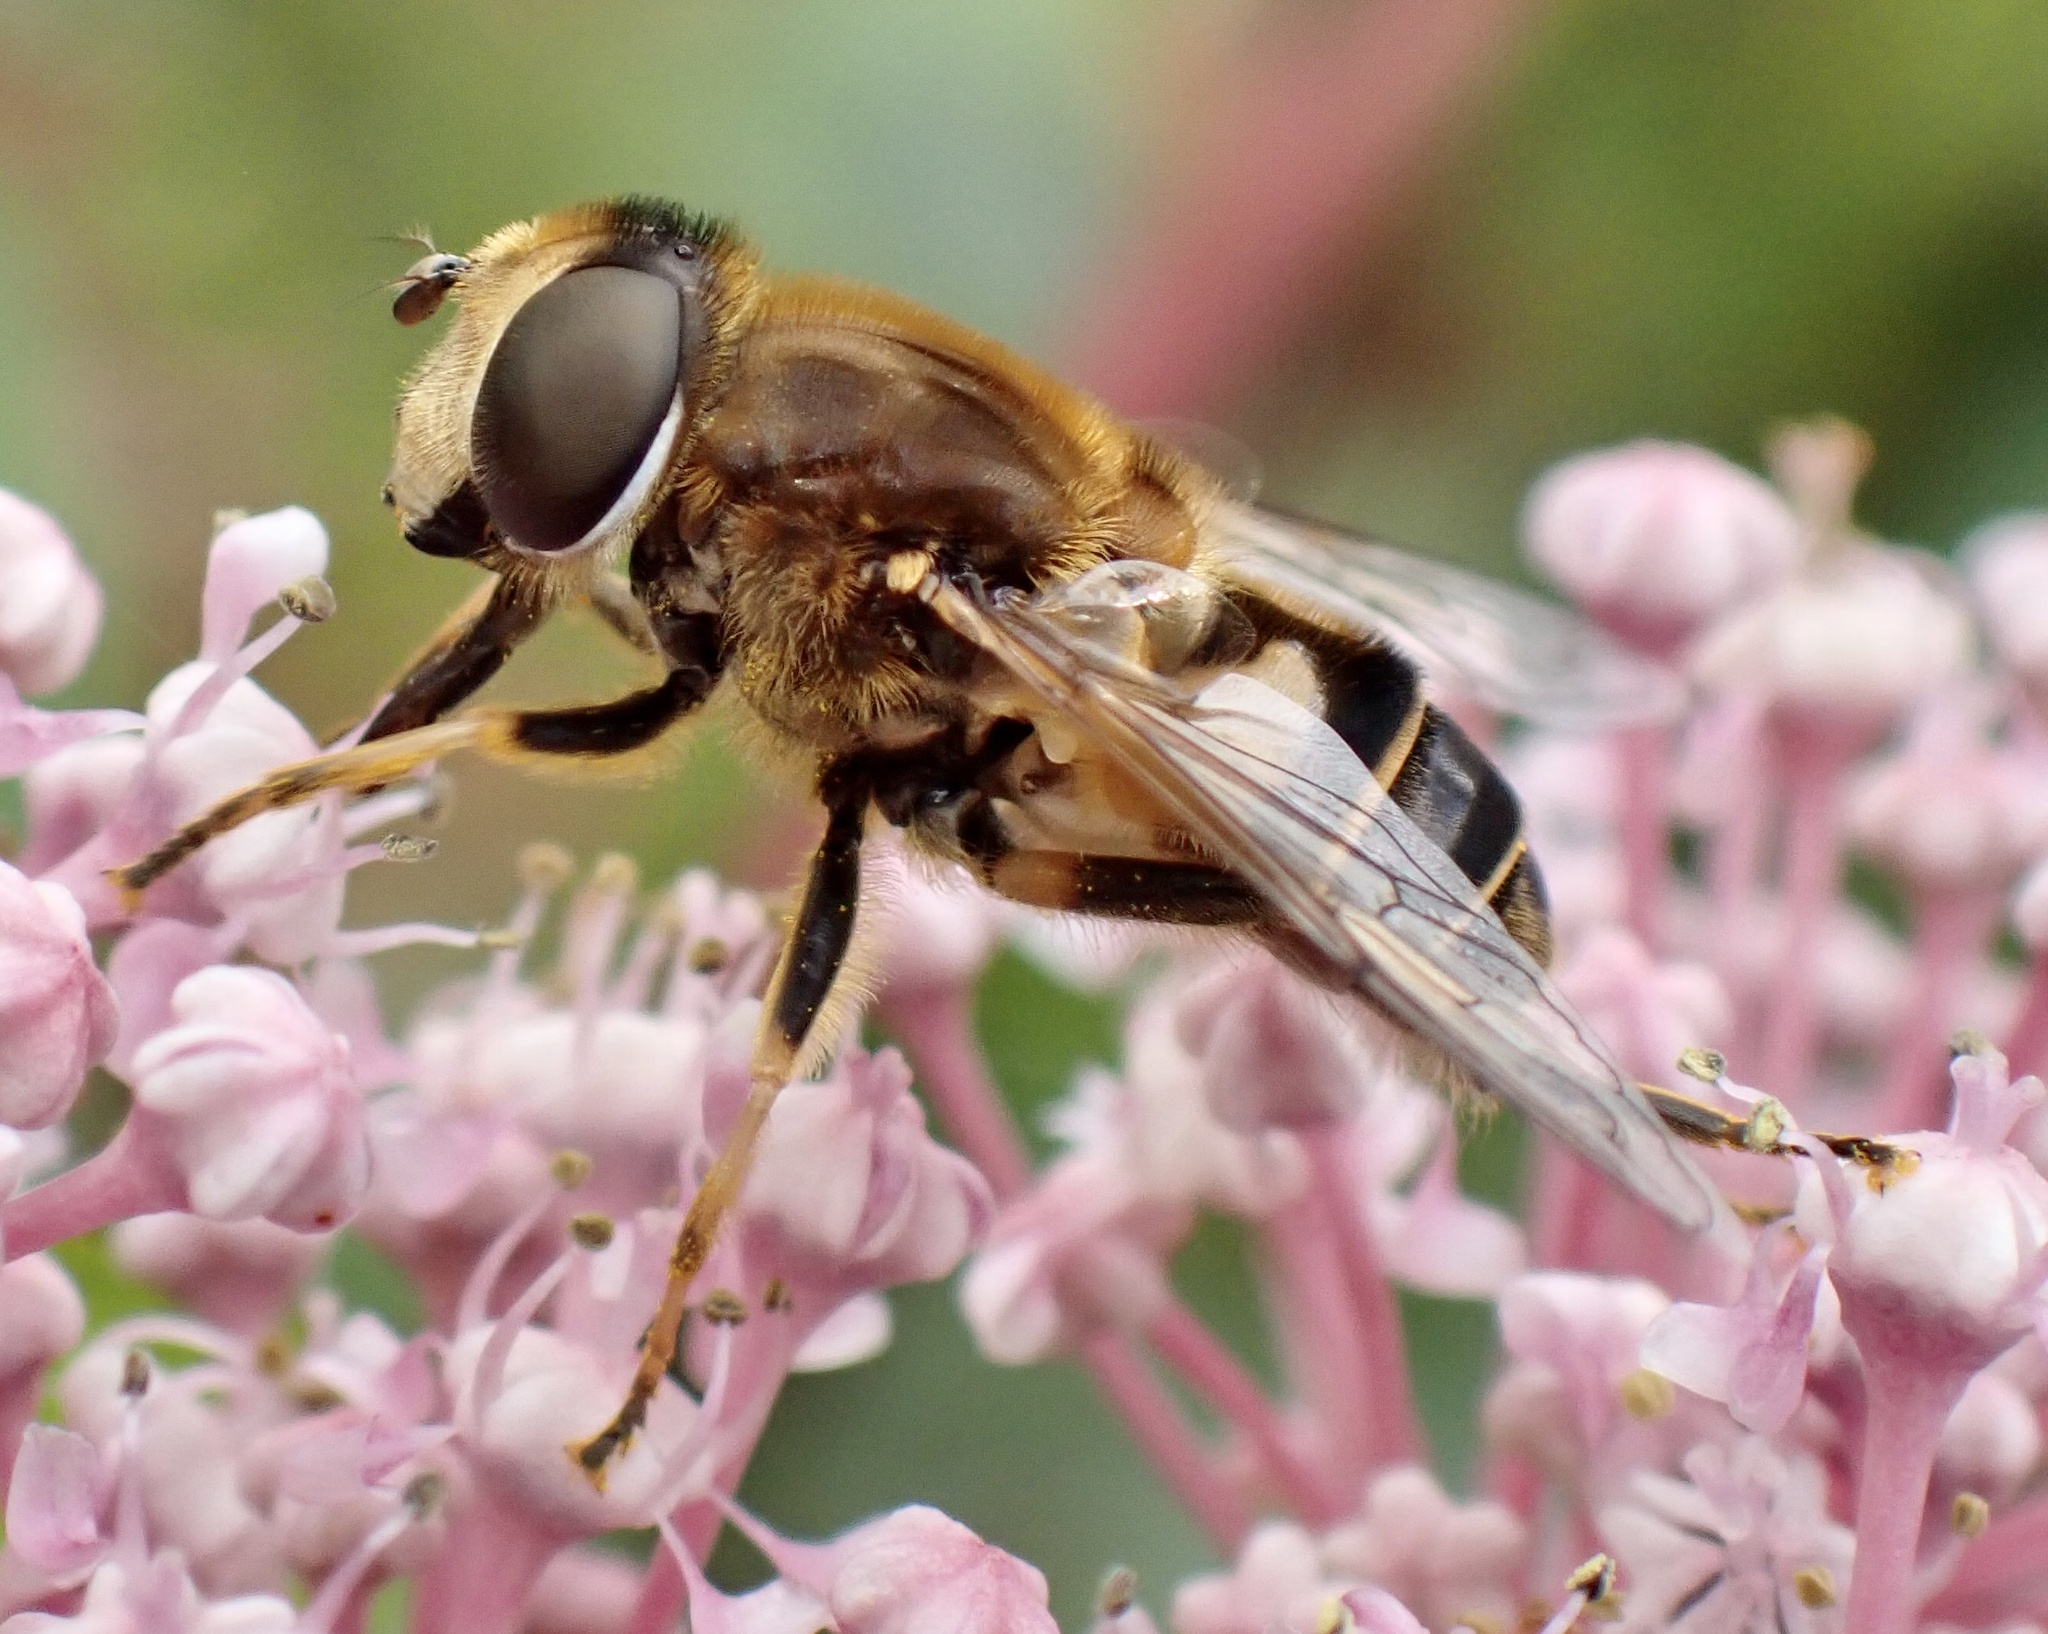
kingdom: Animalia
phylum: Arthropoda
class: Insecta
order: Diptera
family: Syrphidae
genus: Eristalis
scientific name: Eristalis nemorum
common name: Orange-spined drone fly
